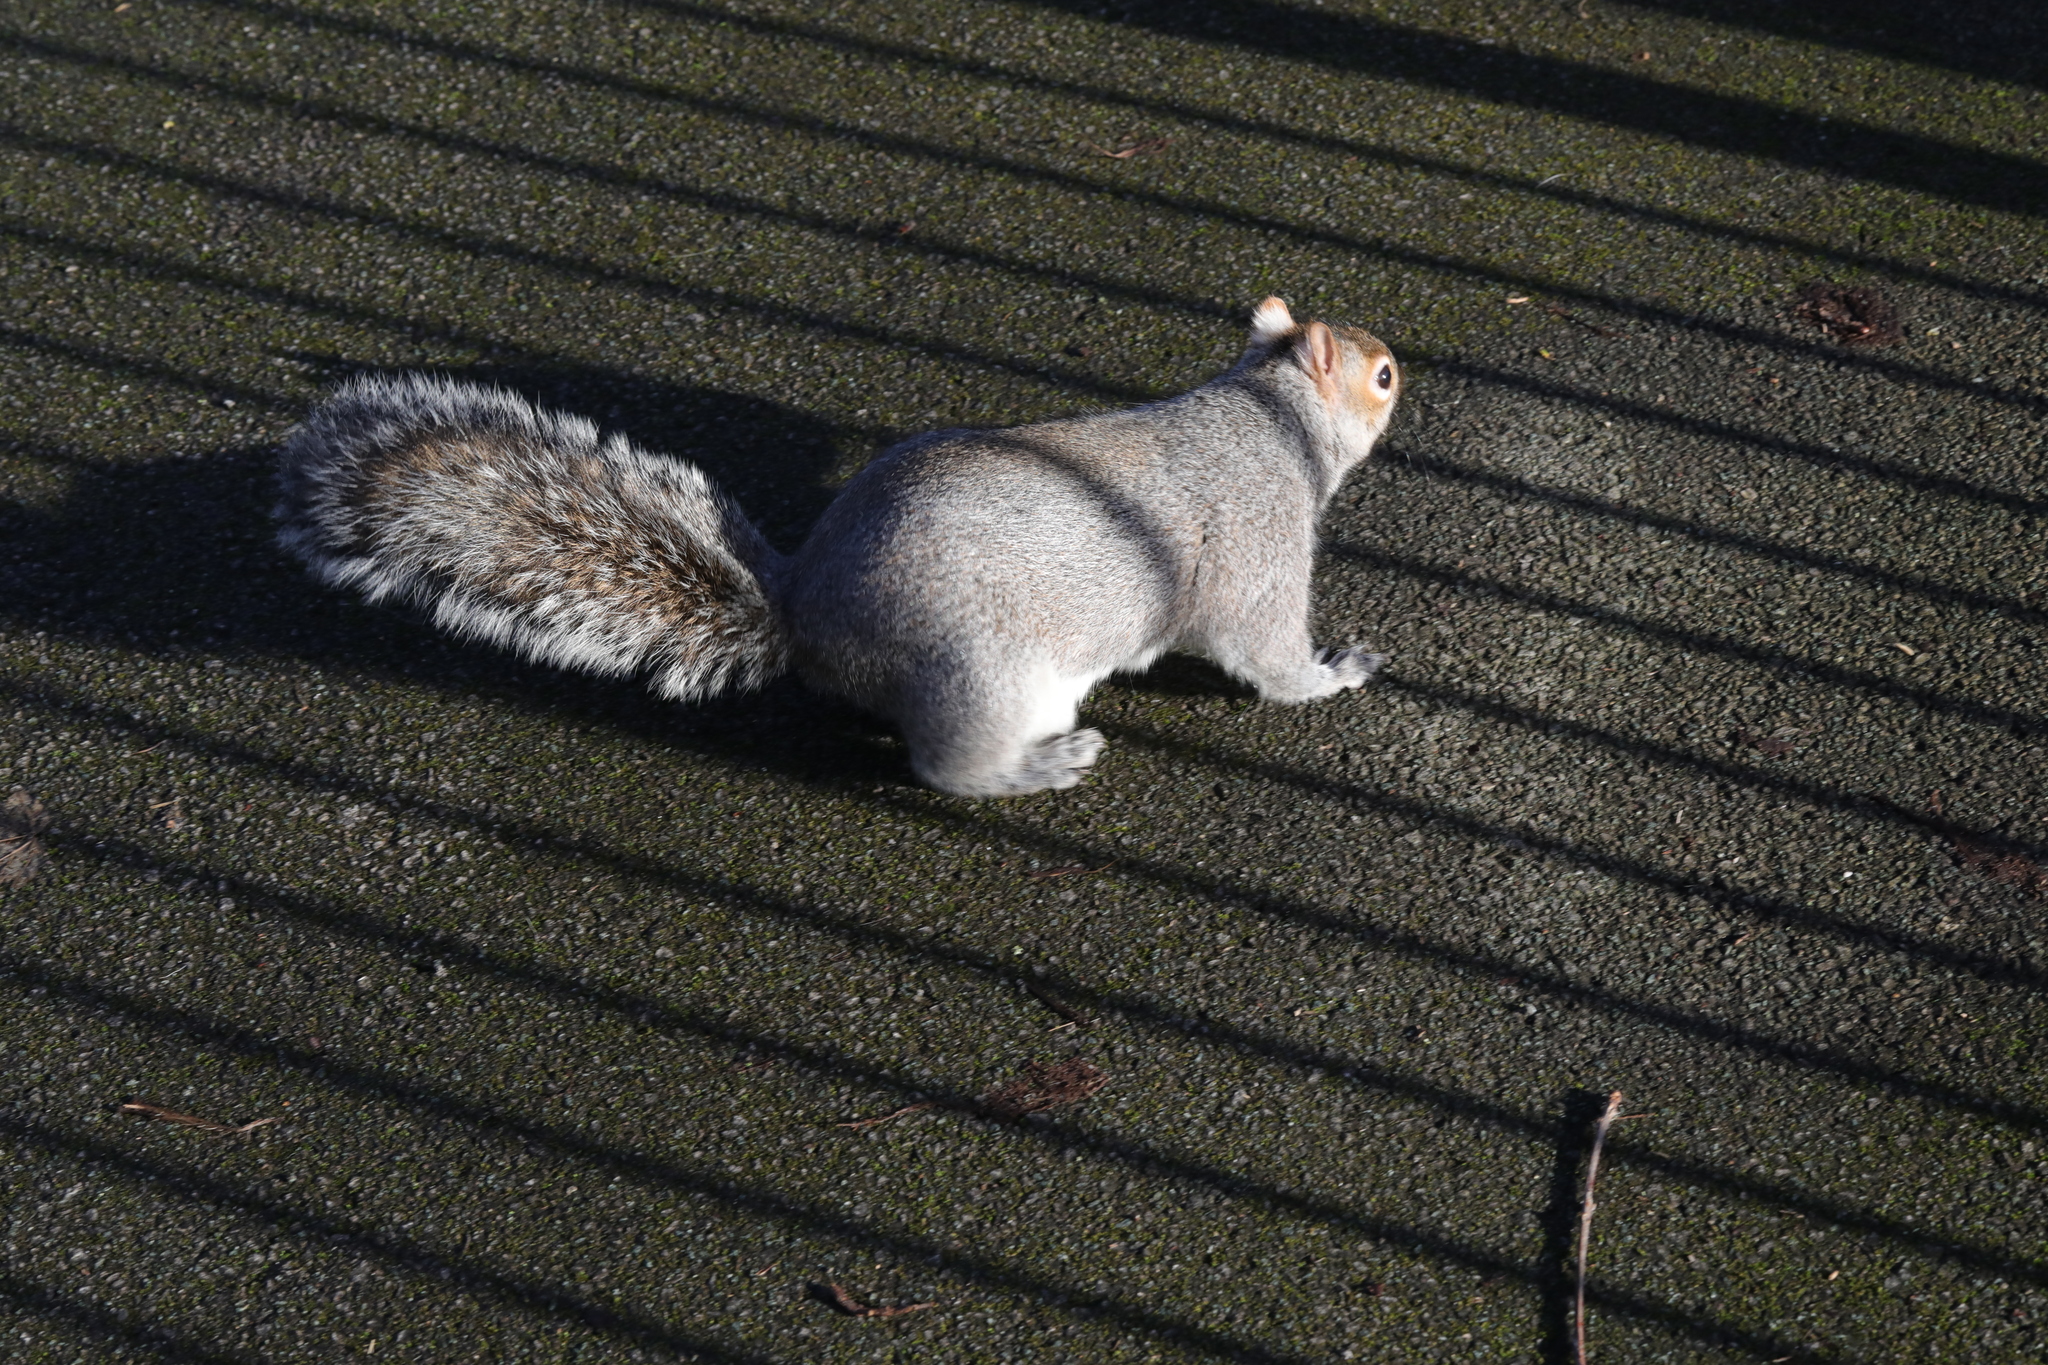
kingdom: Animalia
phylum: Chordata
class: Mammalia
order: Rodentia
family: Sciuridae
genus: Sciurus
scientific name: Sciurus carolinensis
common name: Eastern gray squirrel
